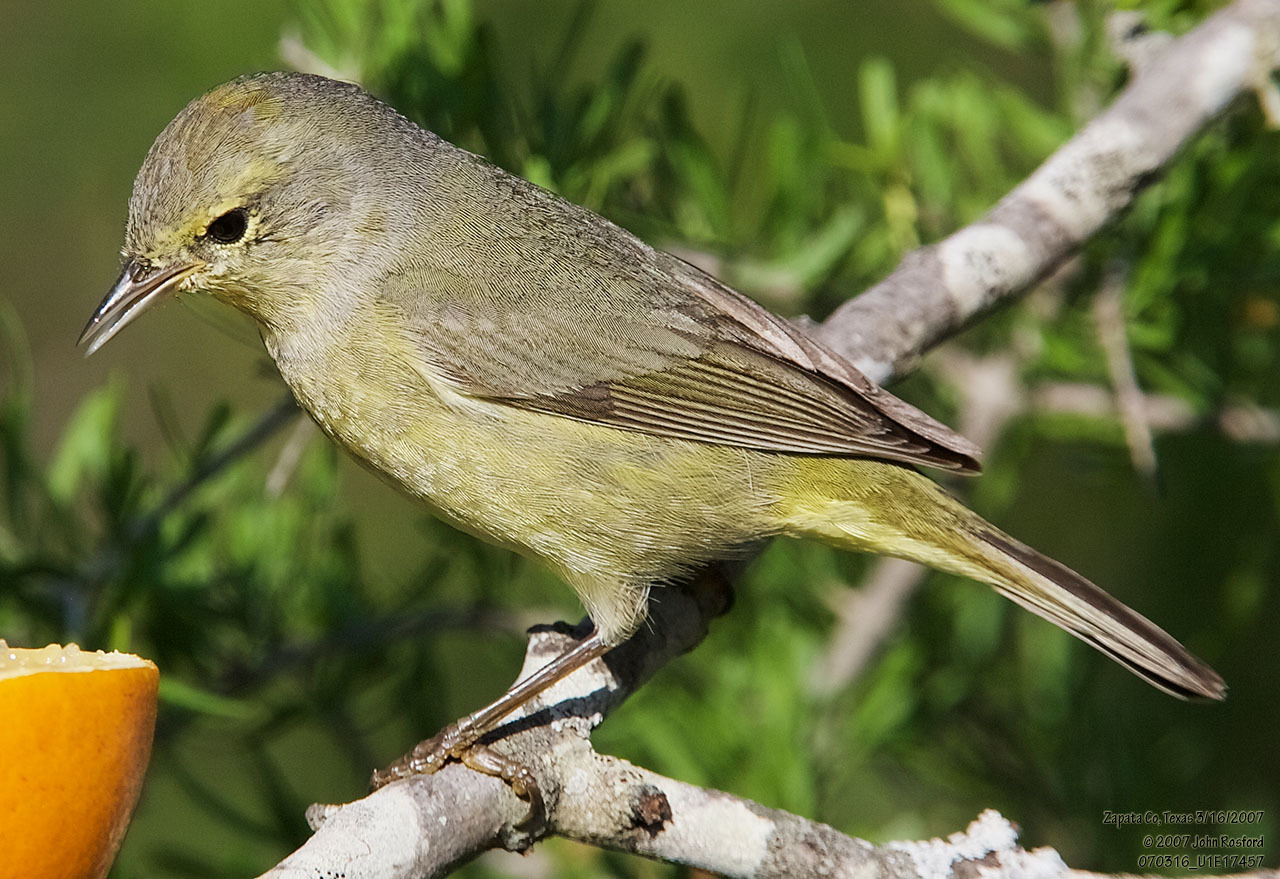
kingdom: Animalia
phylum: Chordata
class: Aves
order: Passeriformes
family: Parulidae
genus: Leiothlypis
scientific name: Leiothlypis celata
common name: Orange-crowned warbler
